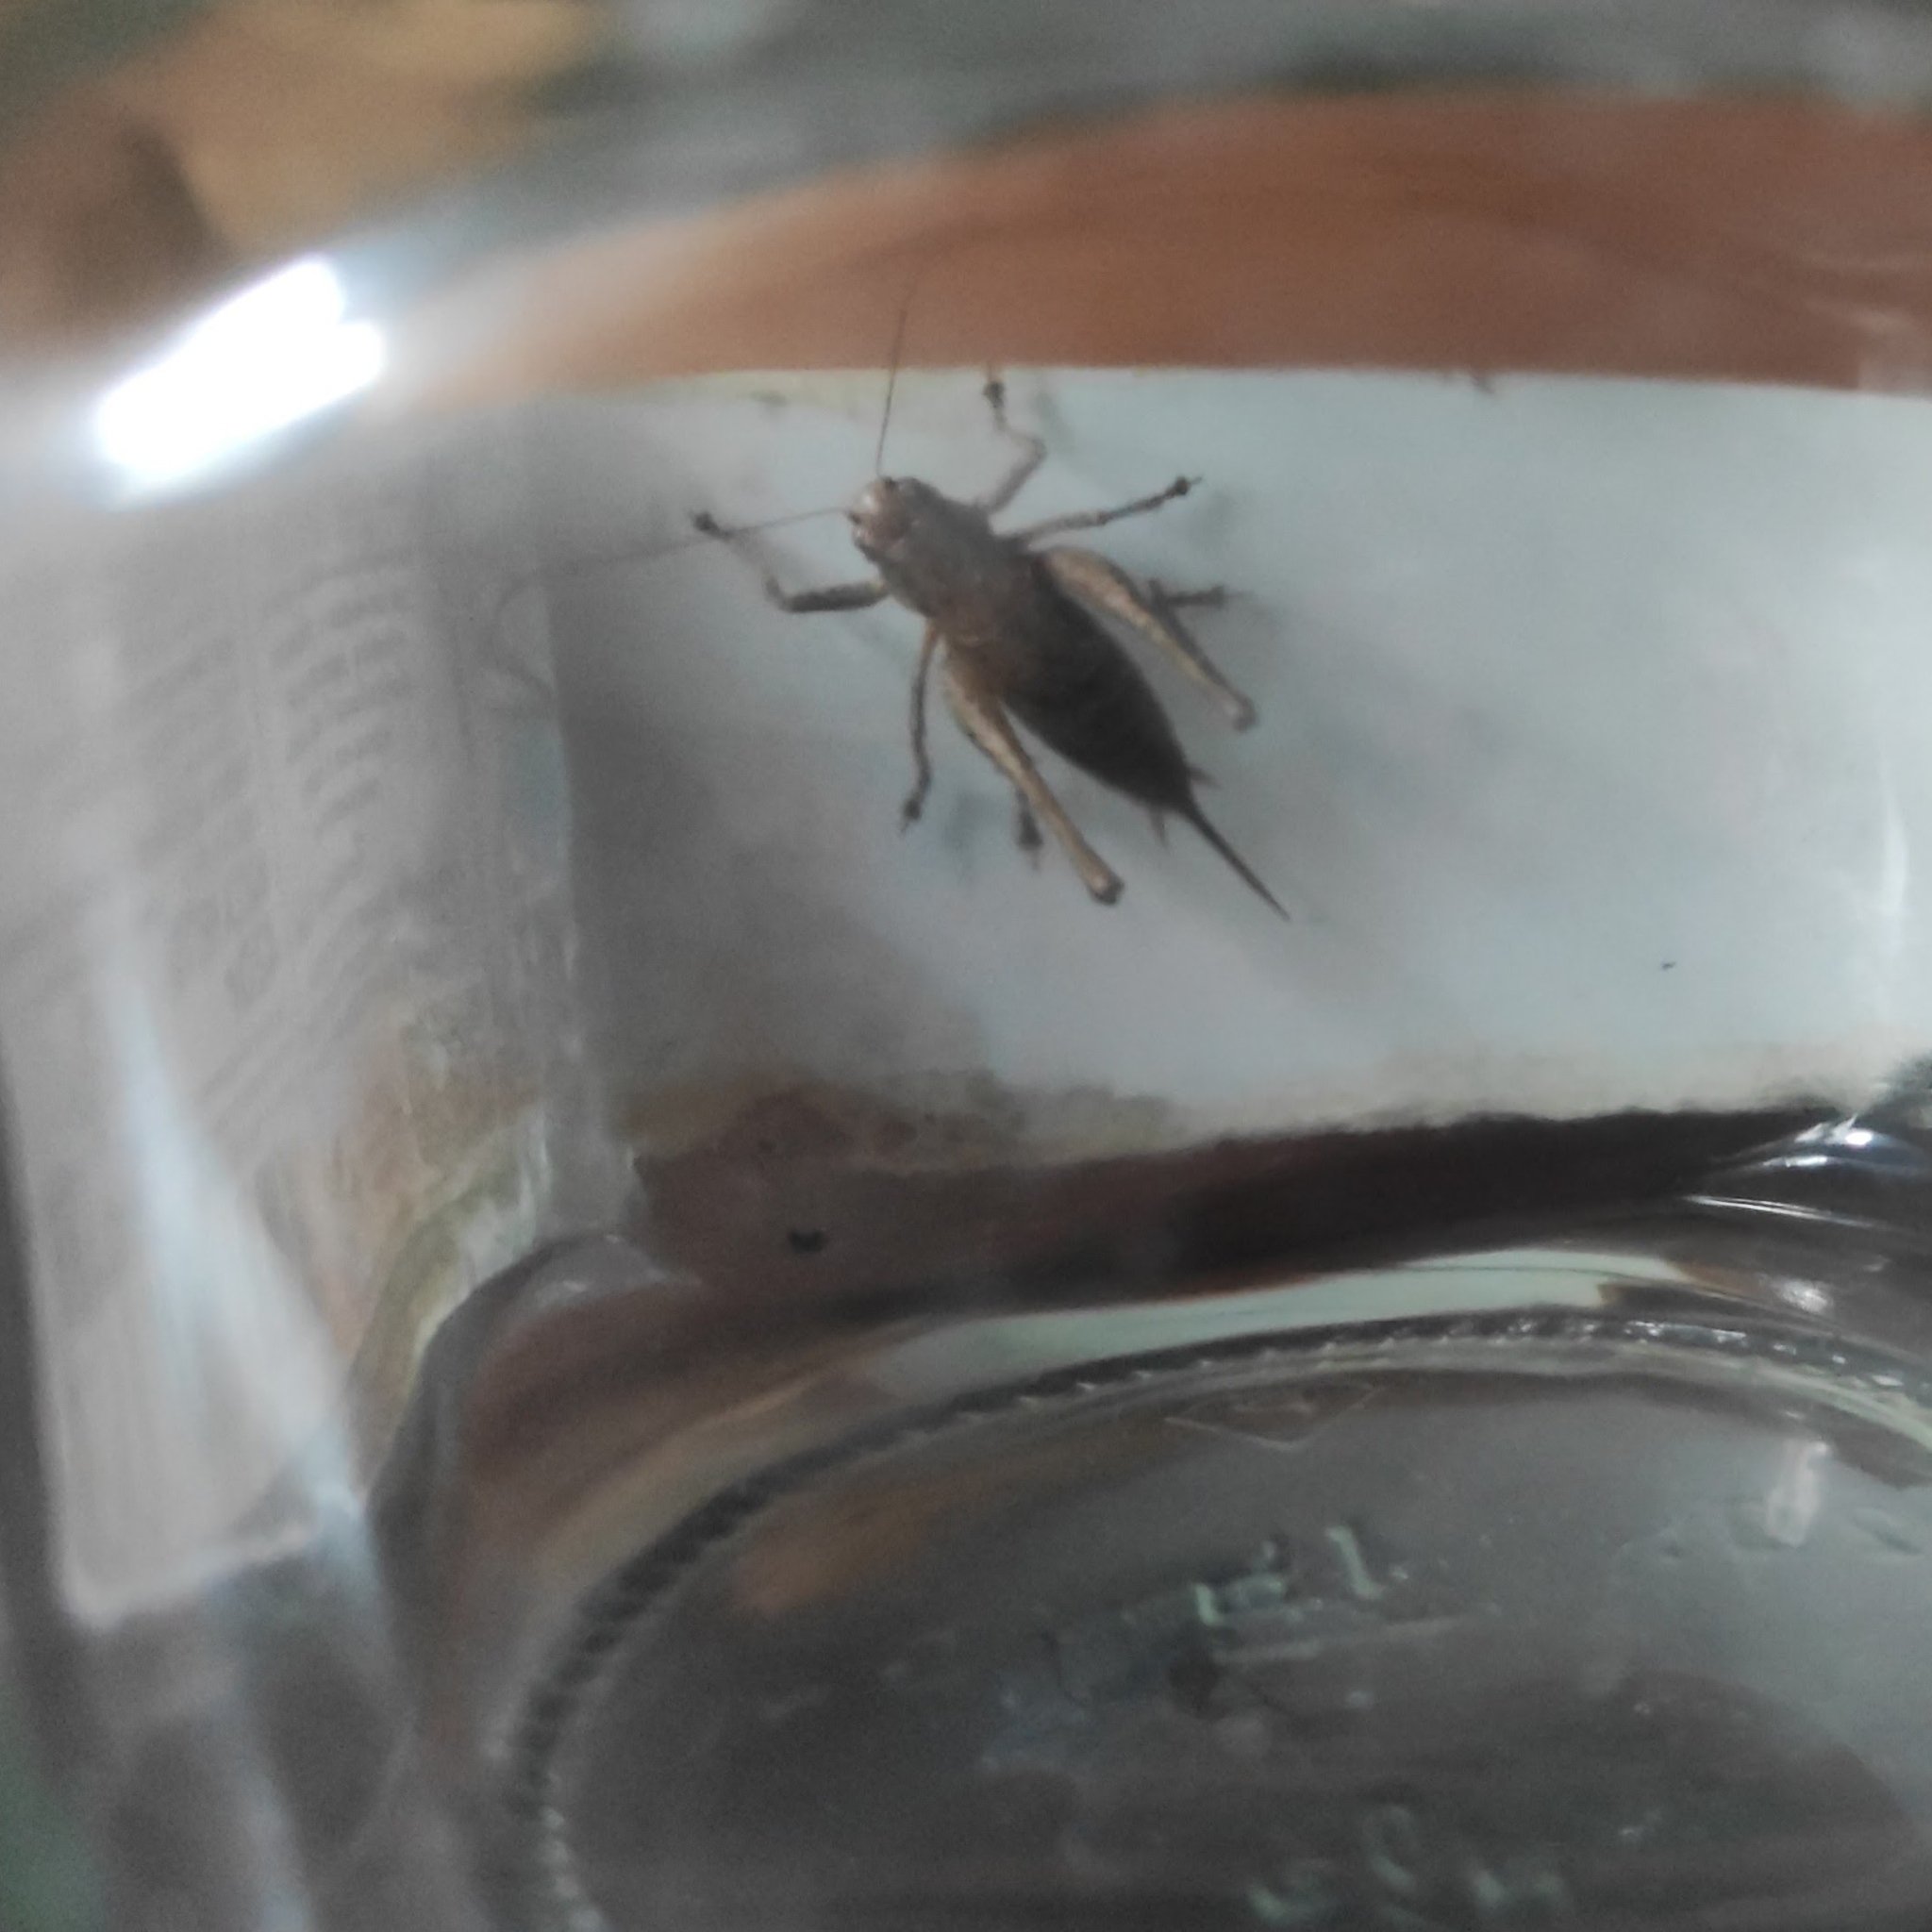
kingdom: Animalia
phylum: Arthropoda
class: Insecta
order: Orthoptera
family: Tettigoniidae
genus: Pholidoptera
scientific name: Pholidoptera griseoaptera
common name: Dark bush-cricket
